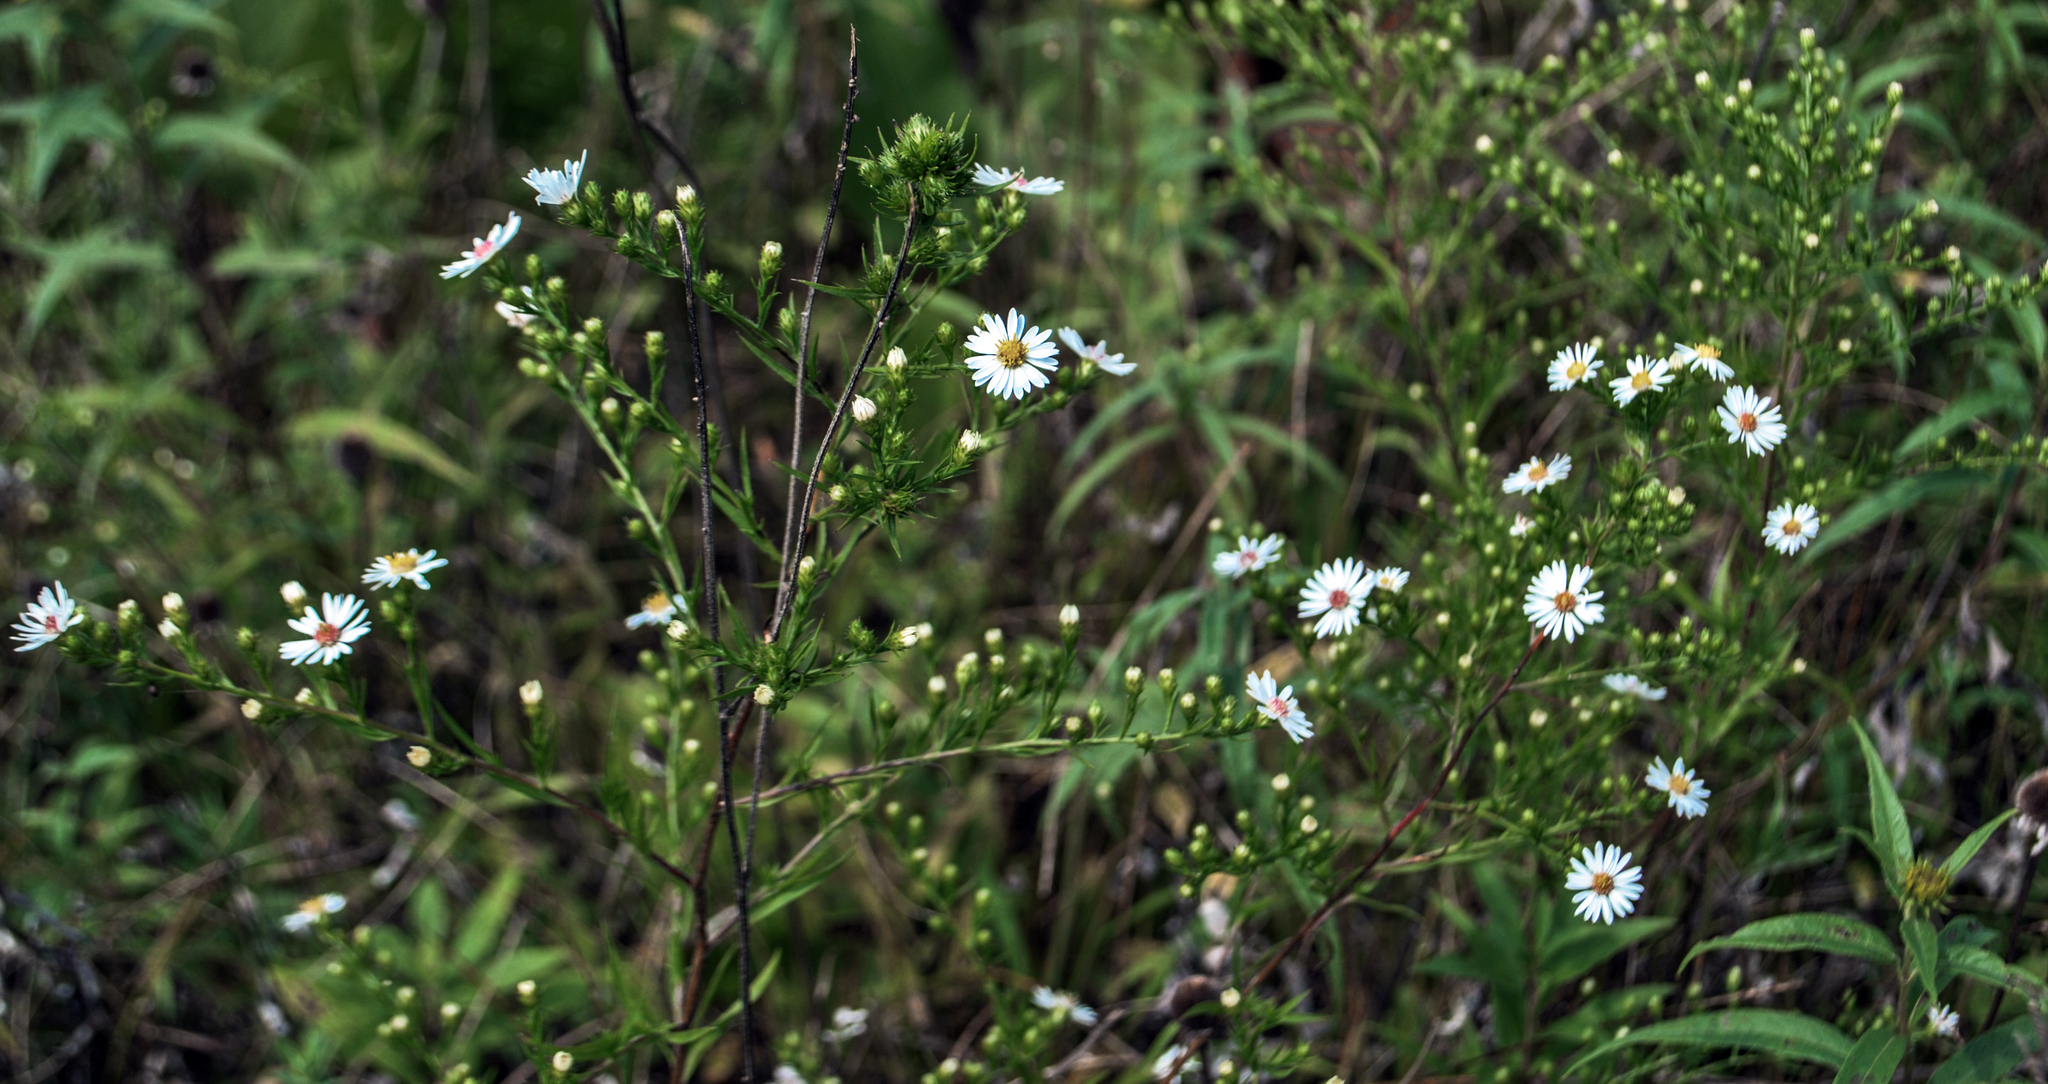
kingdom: Plantae
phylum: Tracheophyta
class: Magnoliopsida
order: Asterales
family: Asteraceae
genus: Symphyotrichum
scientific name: Symphyotrichum ericoides
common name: Heath aster
